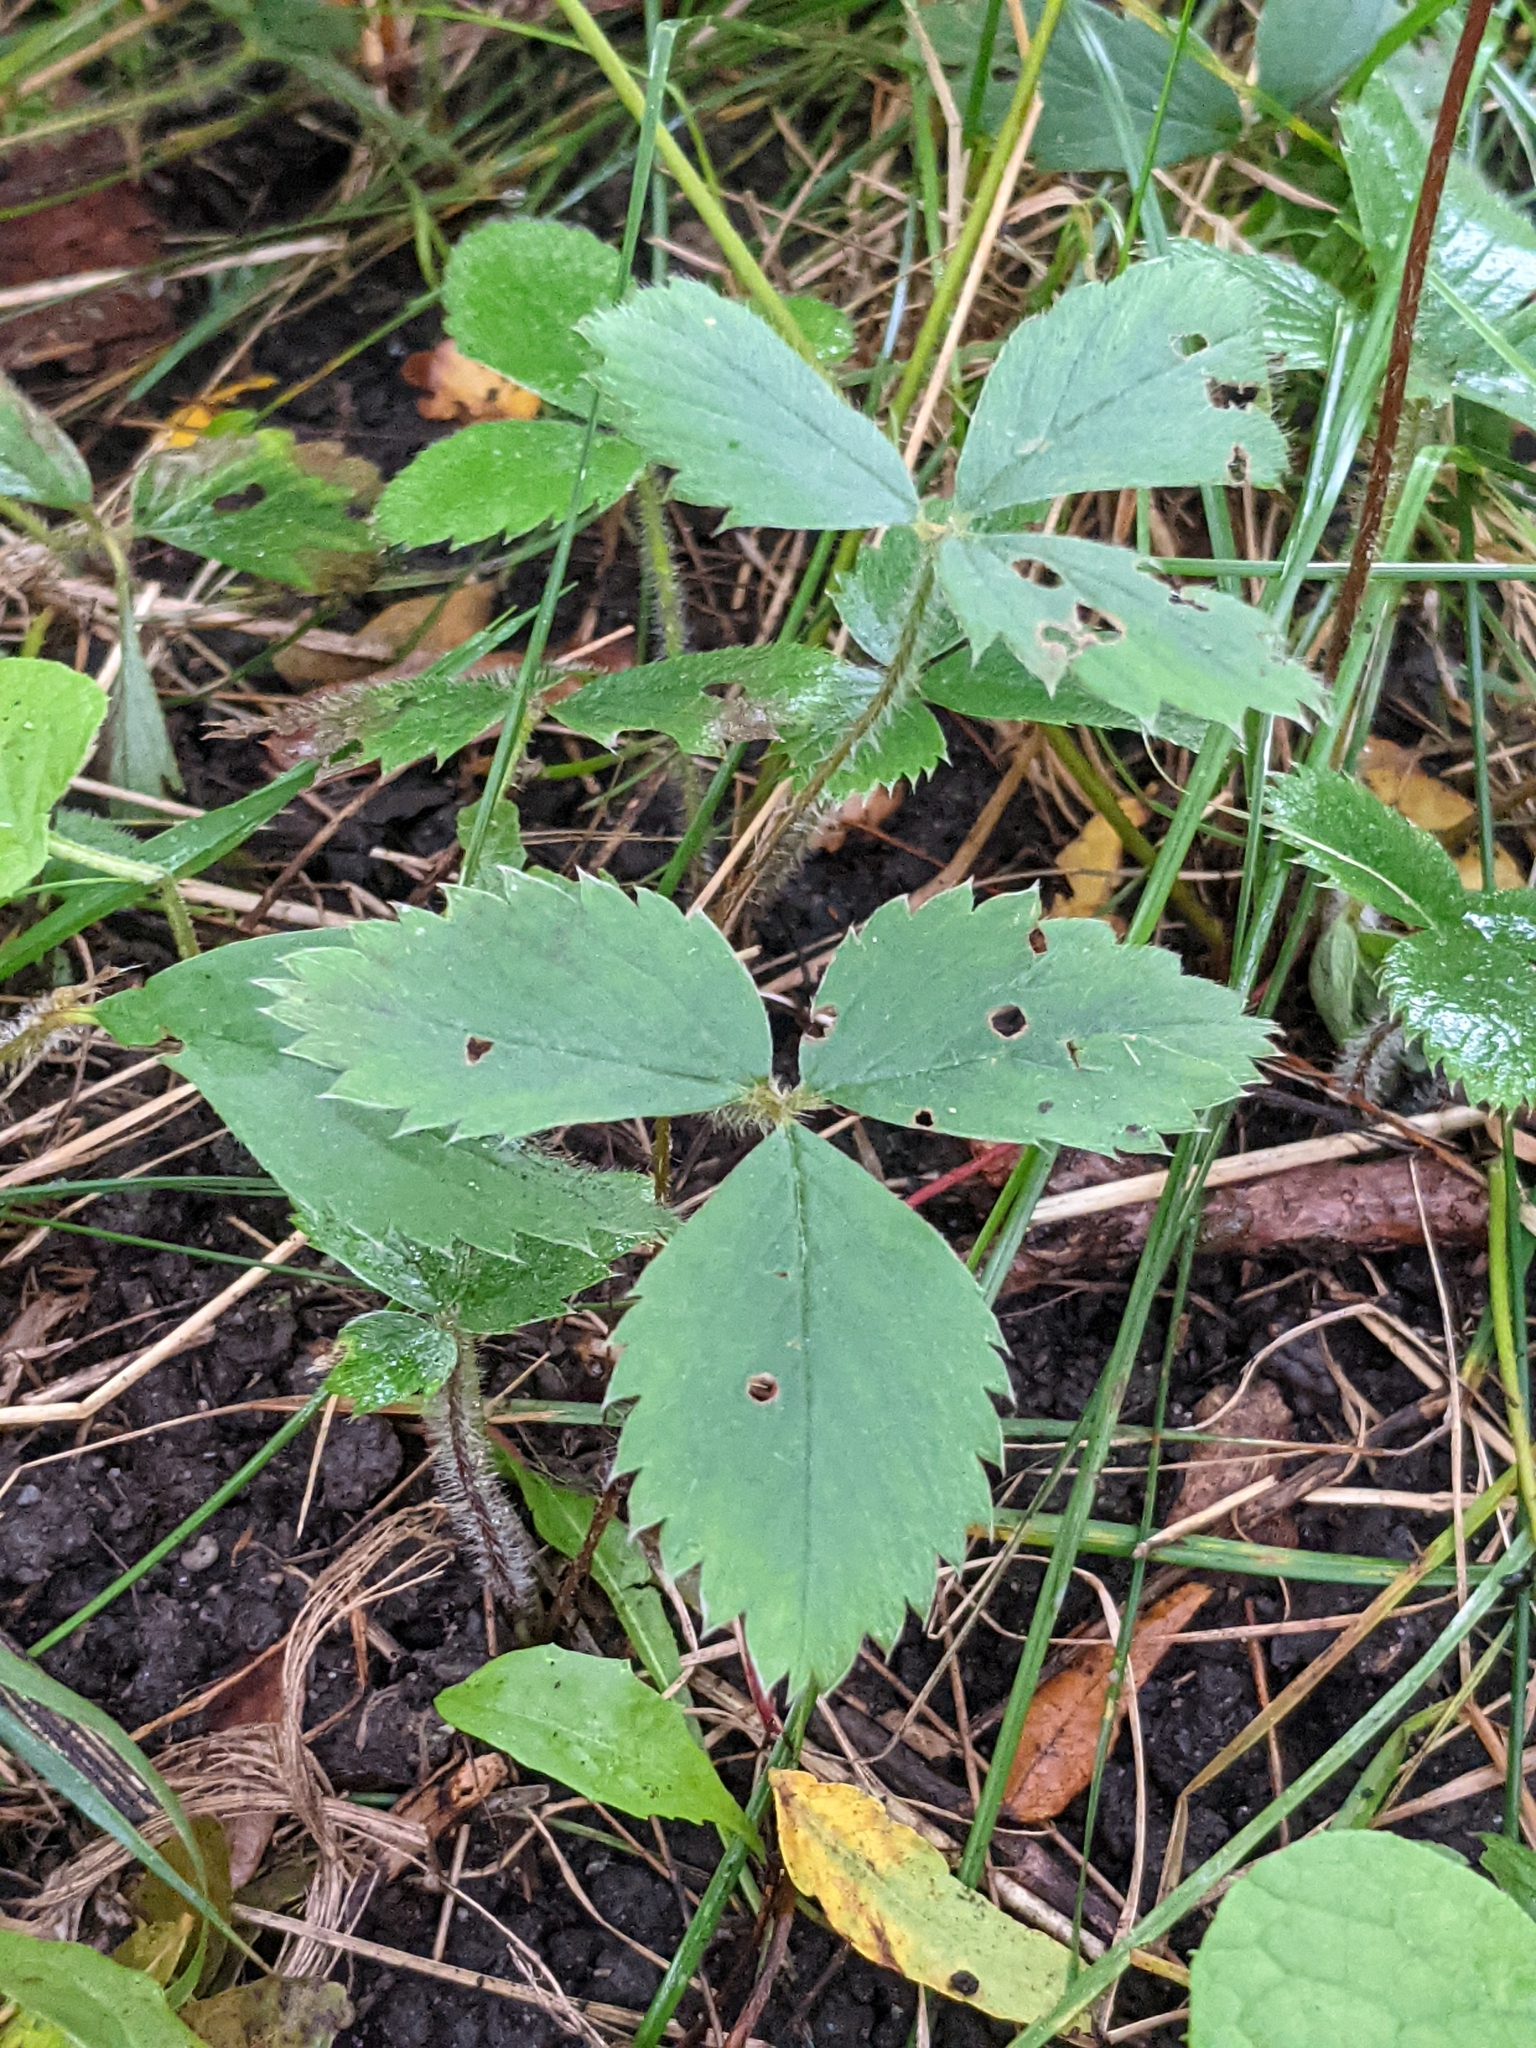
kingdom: Plantae
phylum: Tracheophyta
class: Magnoliopsida
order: Rosales
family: Rosaceae
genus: Fragaria
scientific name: Fragaria virginiana
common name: Thickleaved wild strawberry
